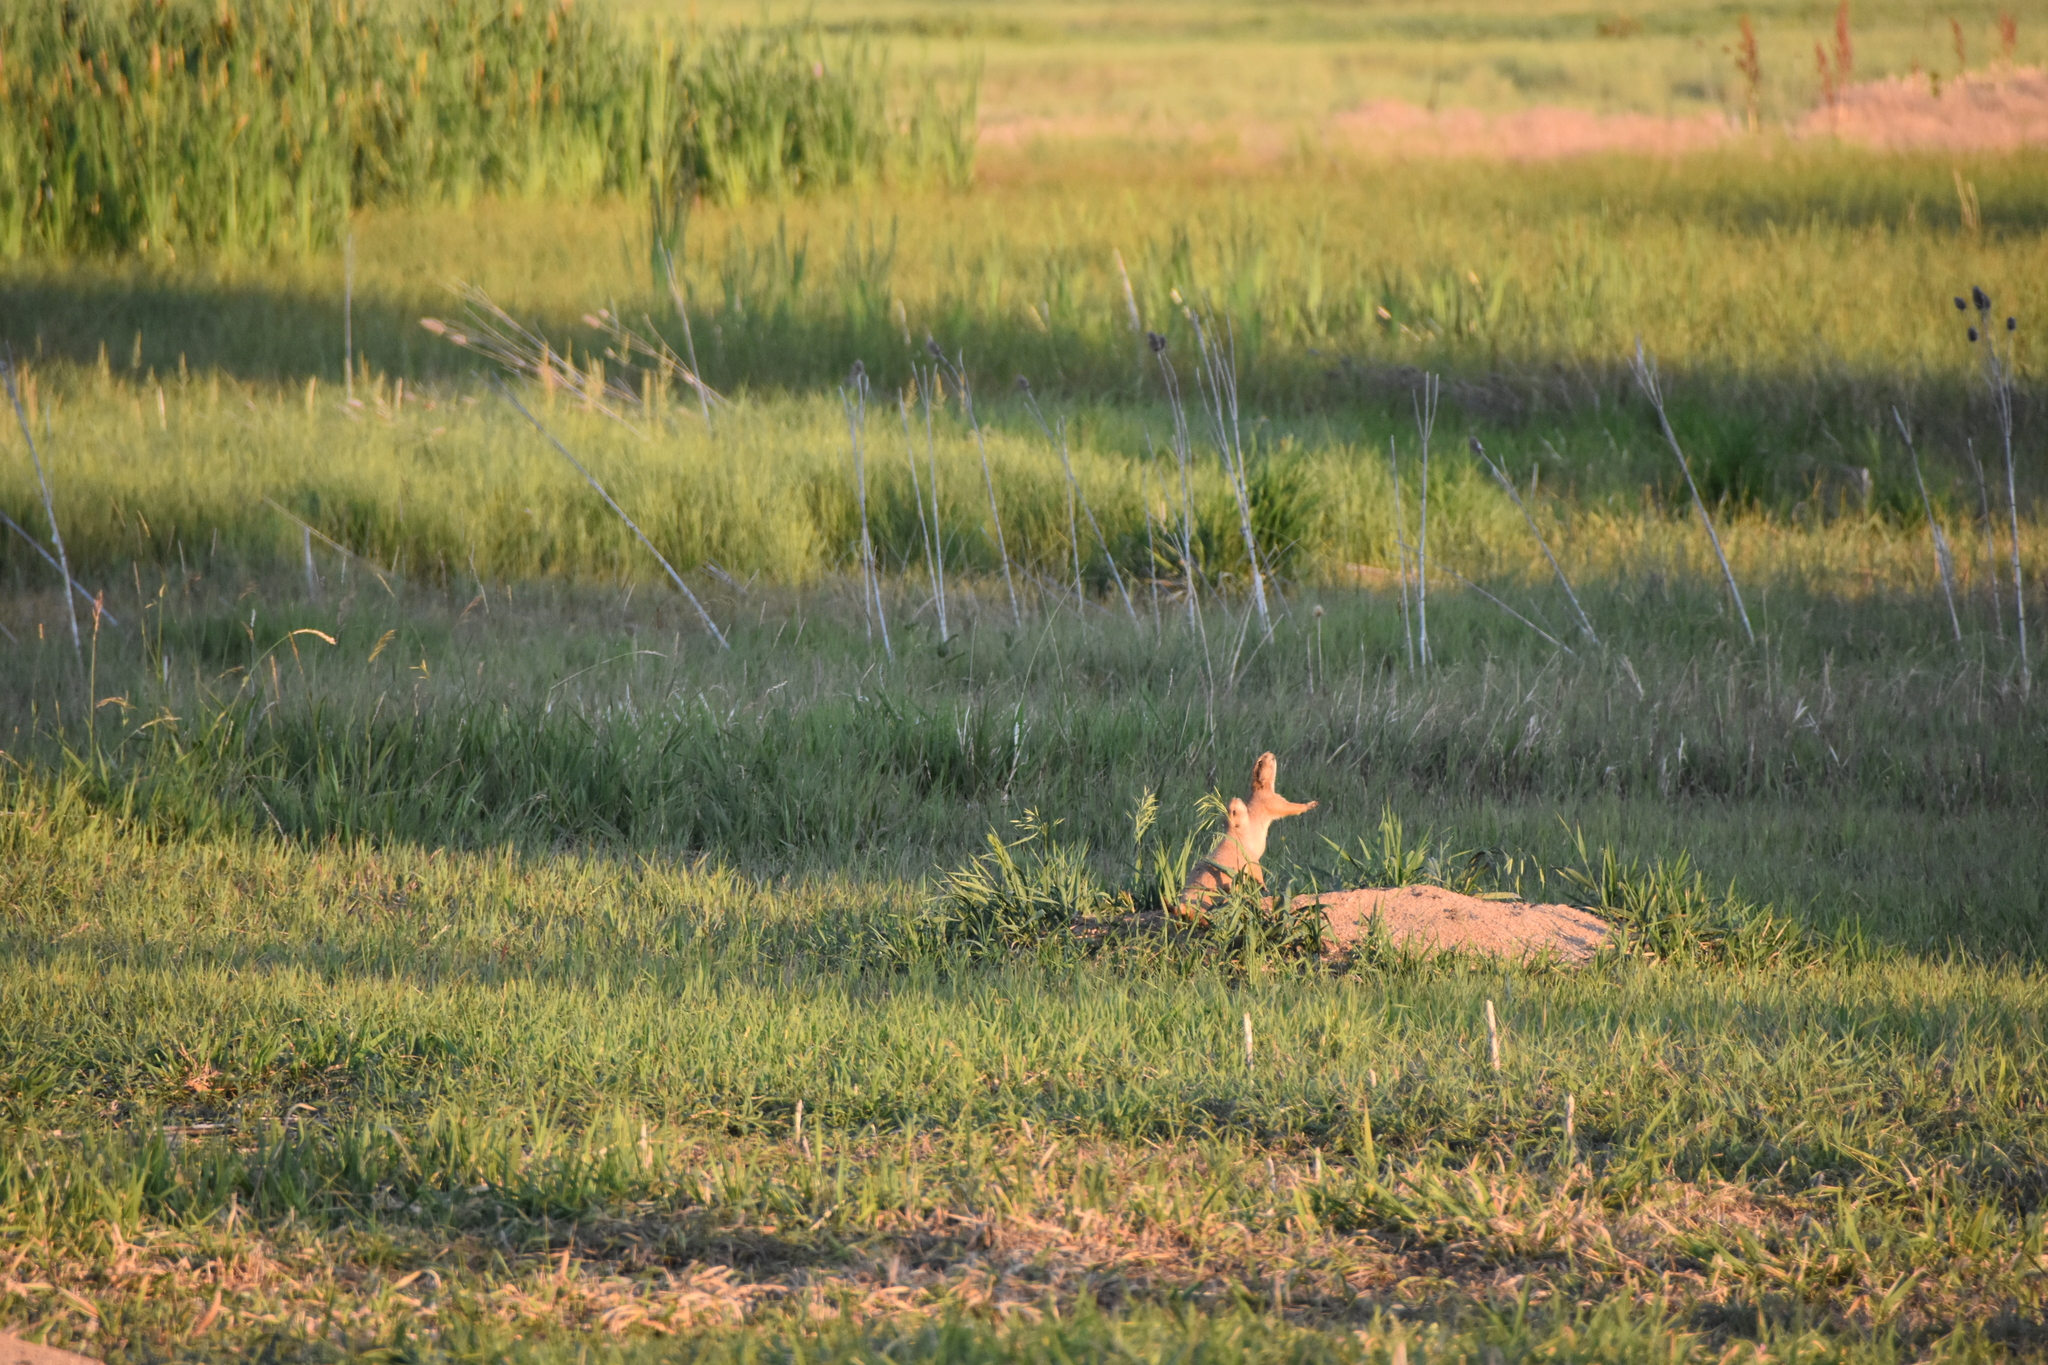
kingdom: Animalia
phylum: Chordata
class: Mammalia
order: Rodentia
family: Sciuridae
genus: Cynomys
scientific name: Cynomys ludovicianus
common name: Black-tailed prairie dog
